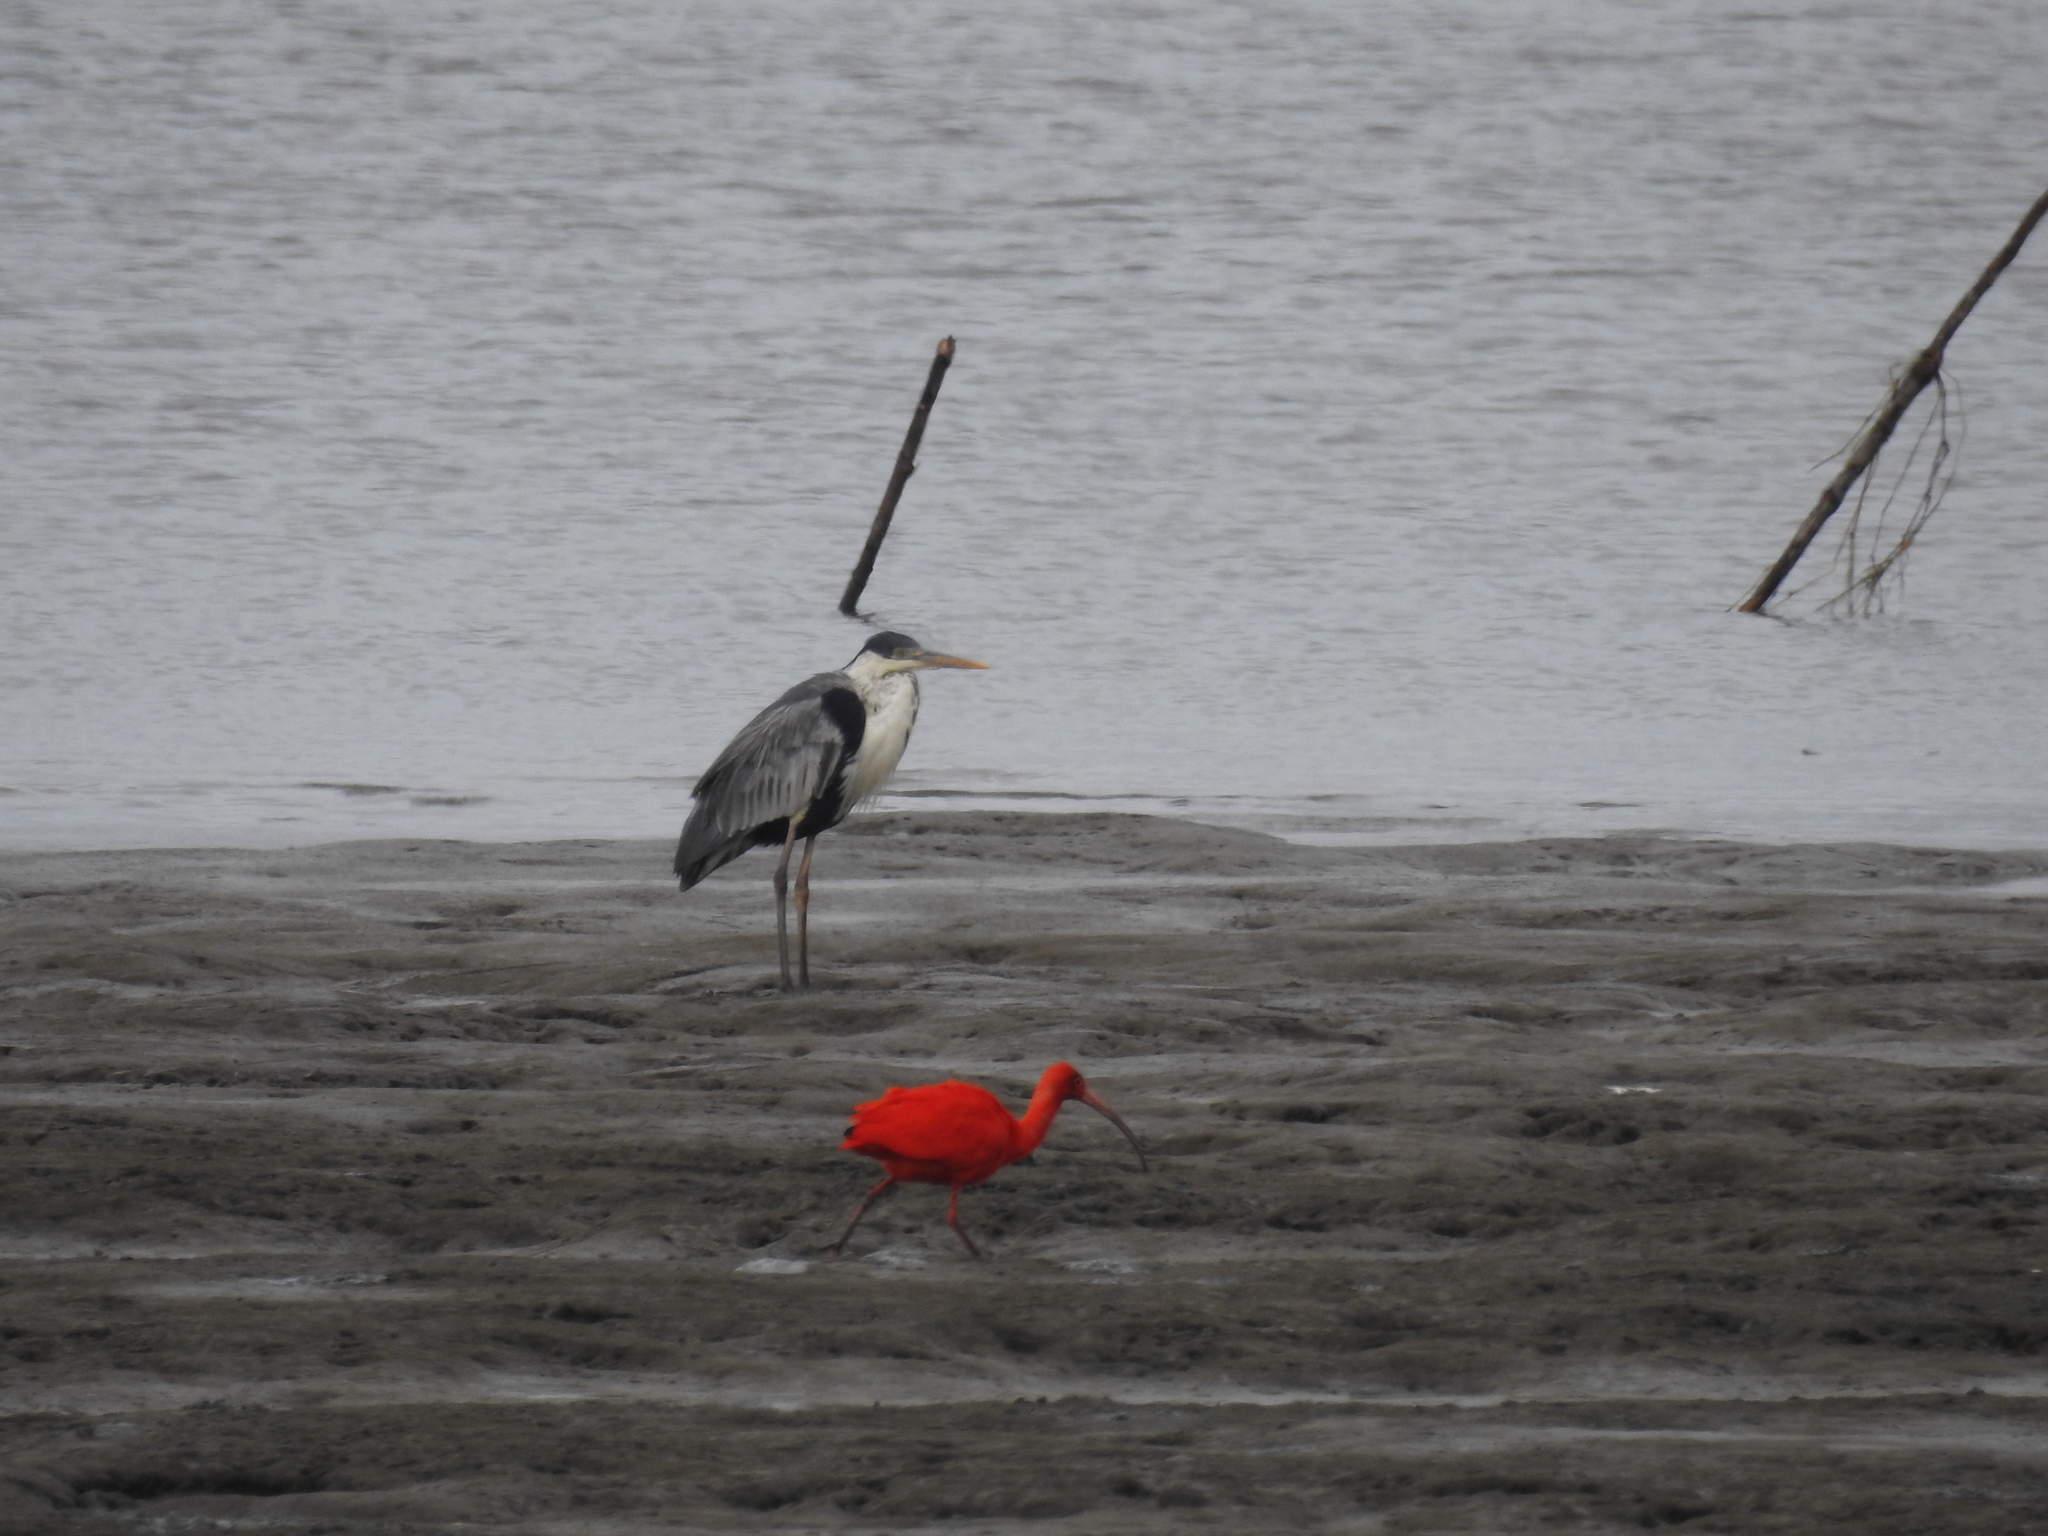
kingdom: Animalia
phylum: Chordata
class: Aves
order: Passeriformes
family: Turdidae
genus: Turdus
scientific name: Turdus flavipes
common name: Yellow-legged thrush
